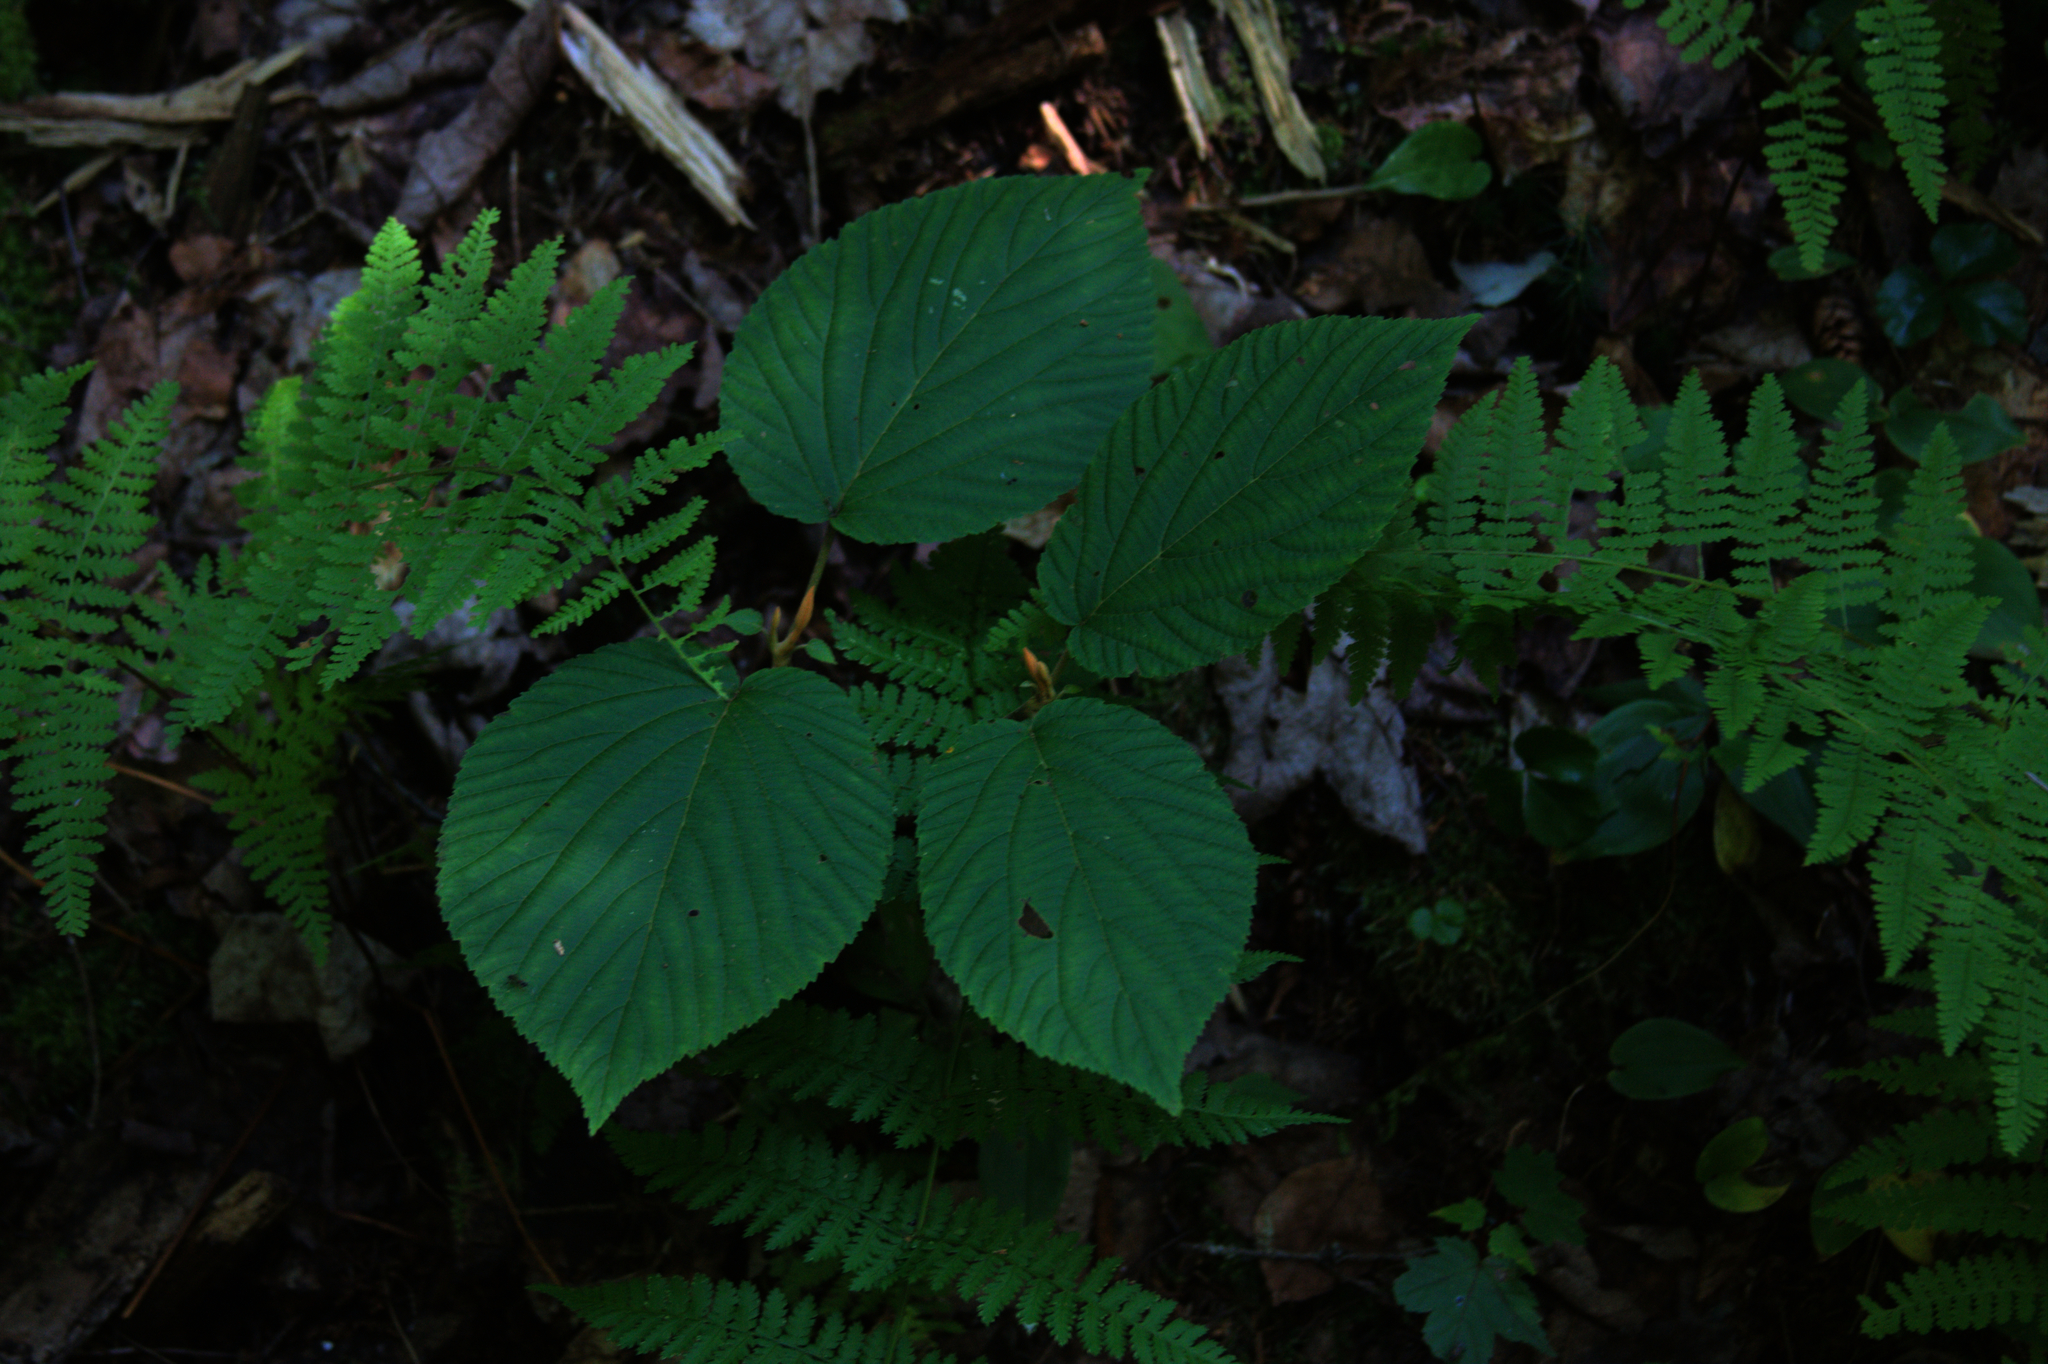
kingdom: Plantae
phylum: Tracheophyta
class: Magnoliopsida
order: Dipsacales
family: Viburnaceae
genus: Viburnum
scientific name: Viburnum lantanoides
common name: Hobblebush
